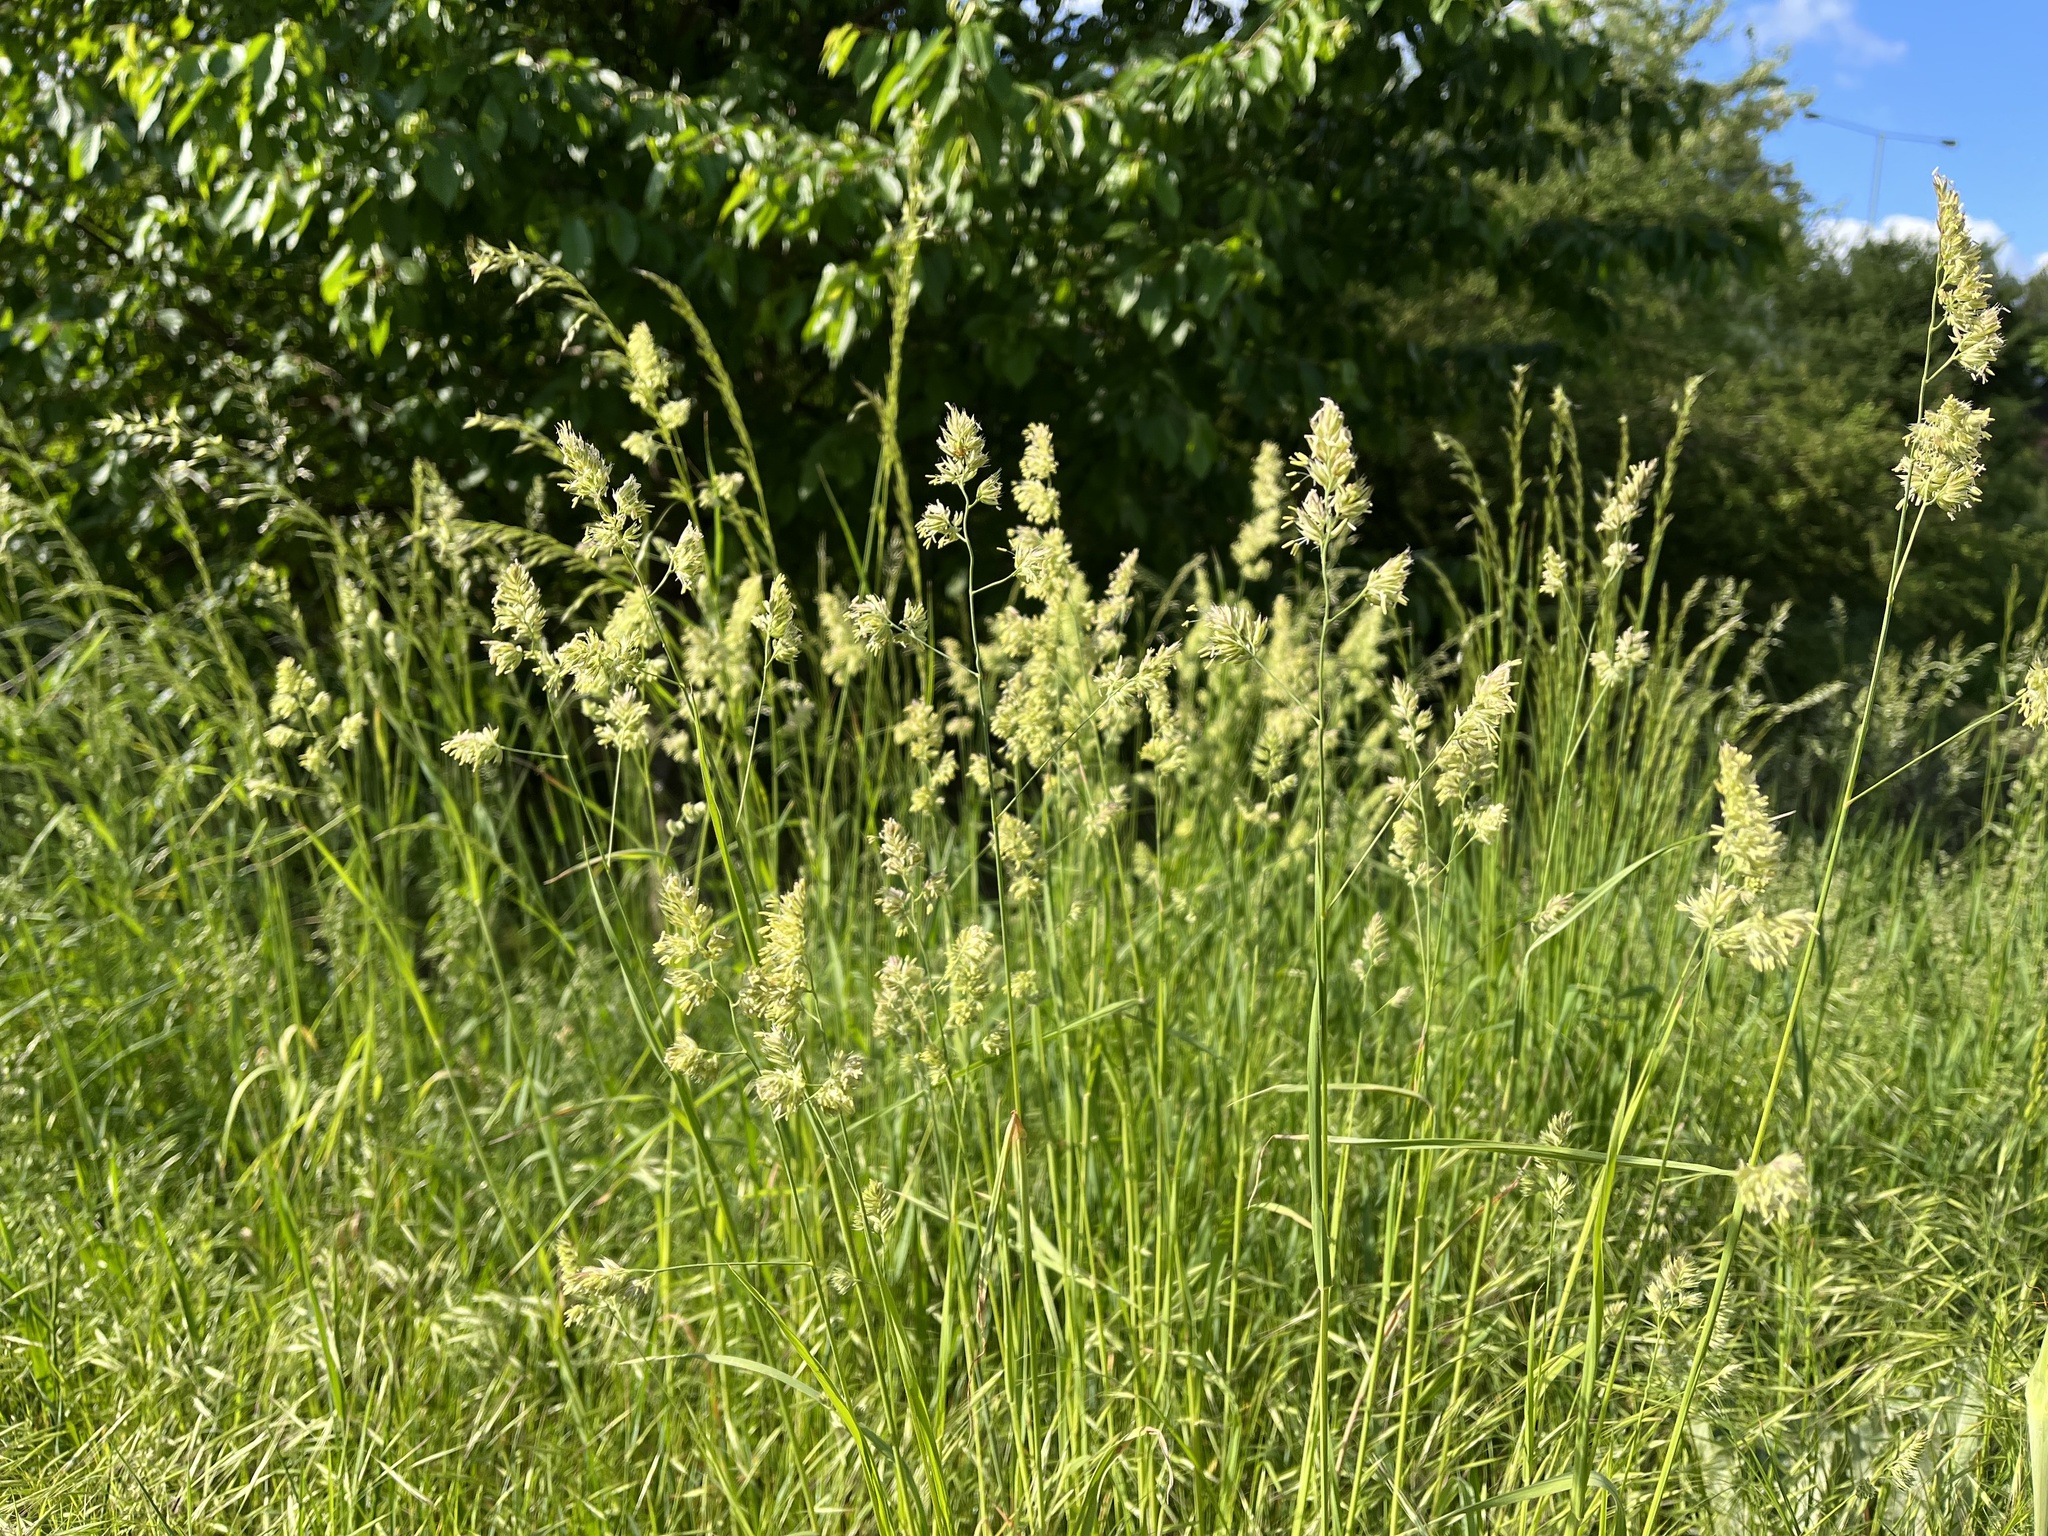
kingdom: Plantae
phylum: Tracheophyta
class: Liliopsida
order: Poales
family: Poaceae
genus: Dactylis
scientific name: Dactylis glomerata
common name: Orchardgrass
